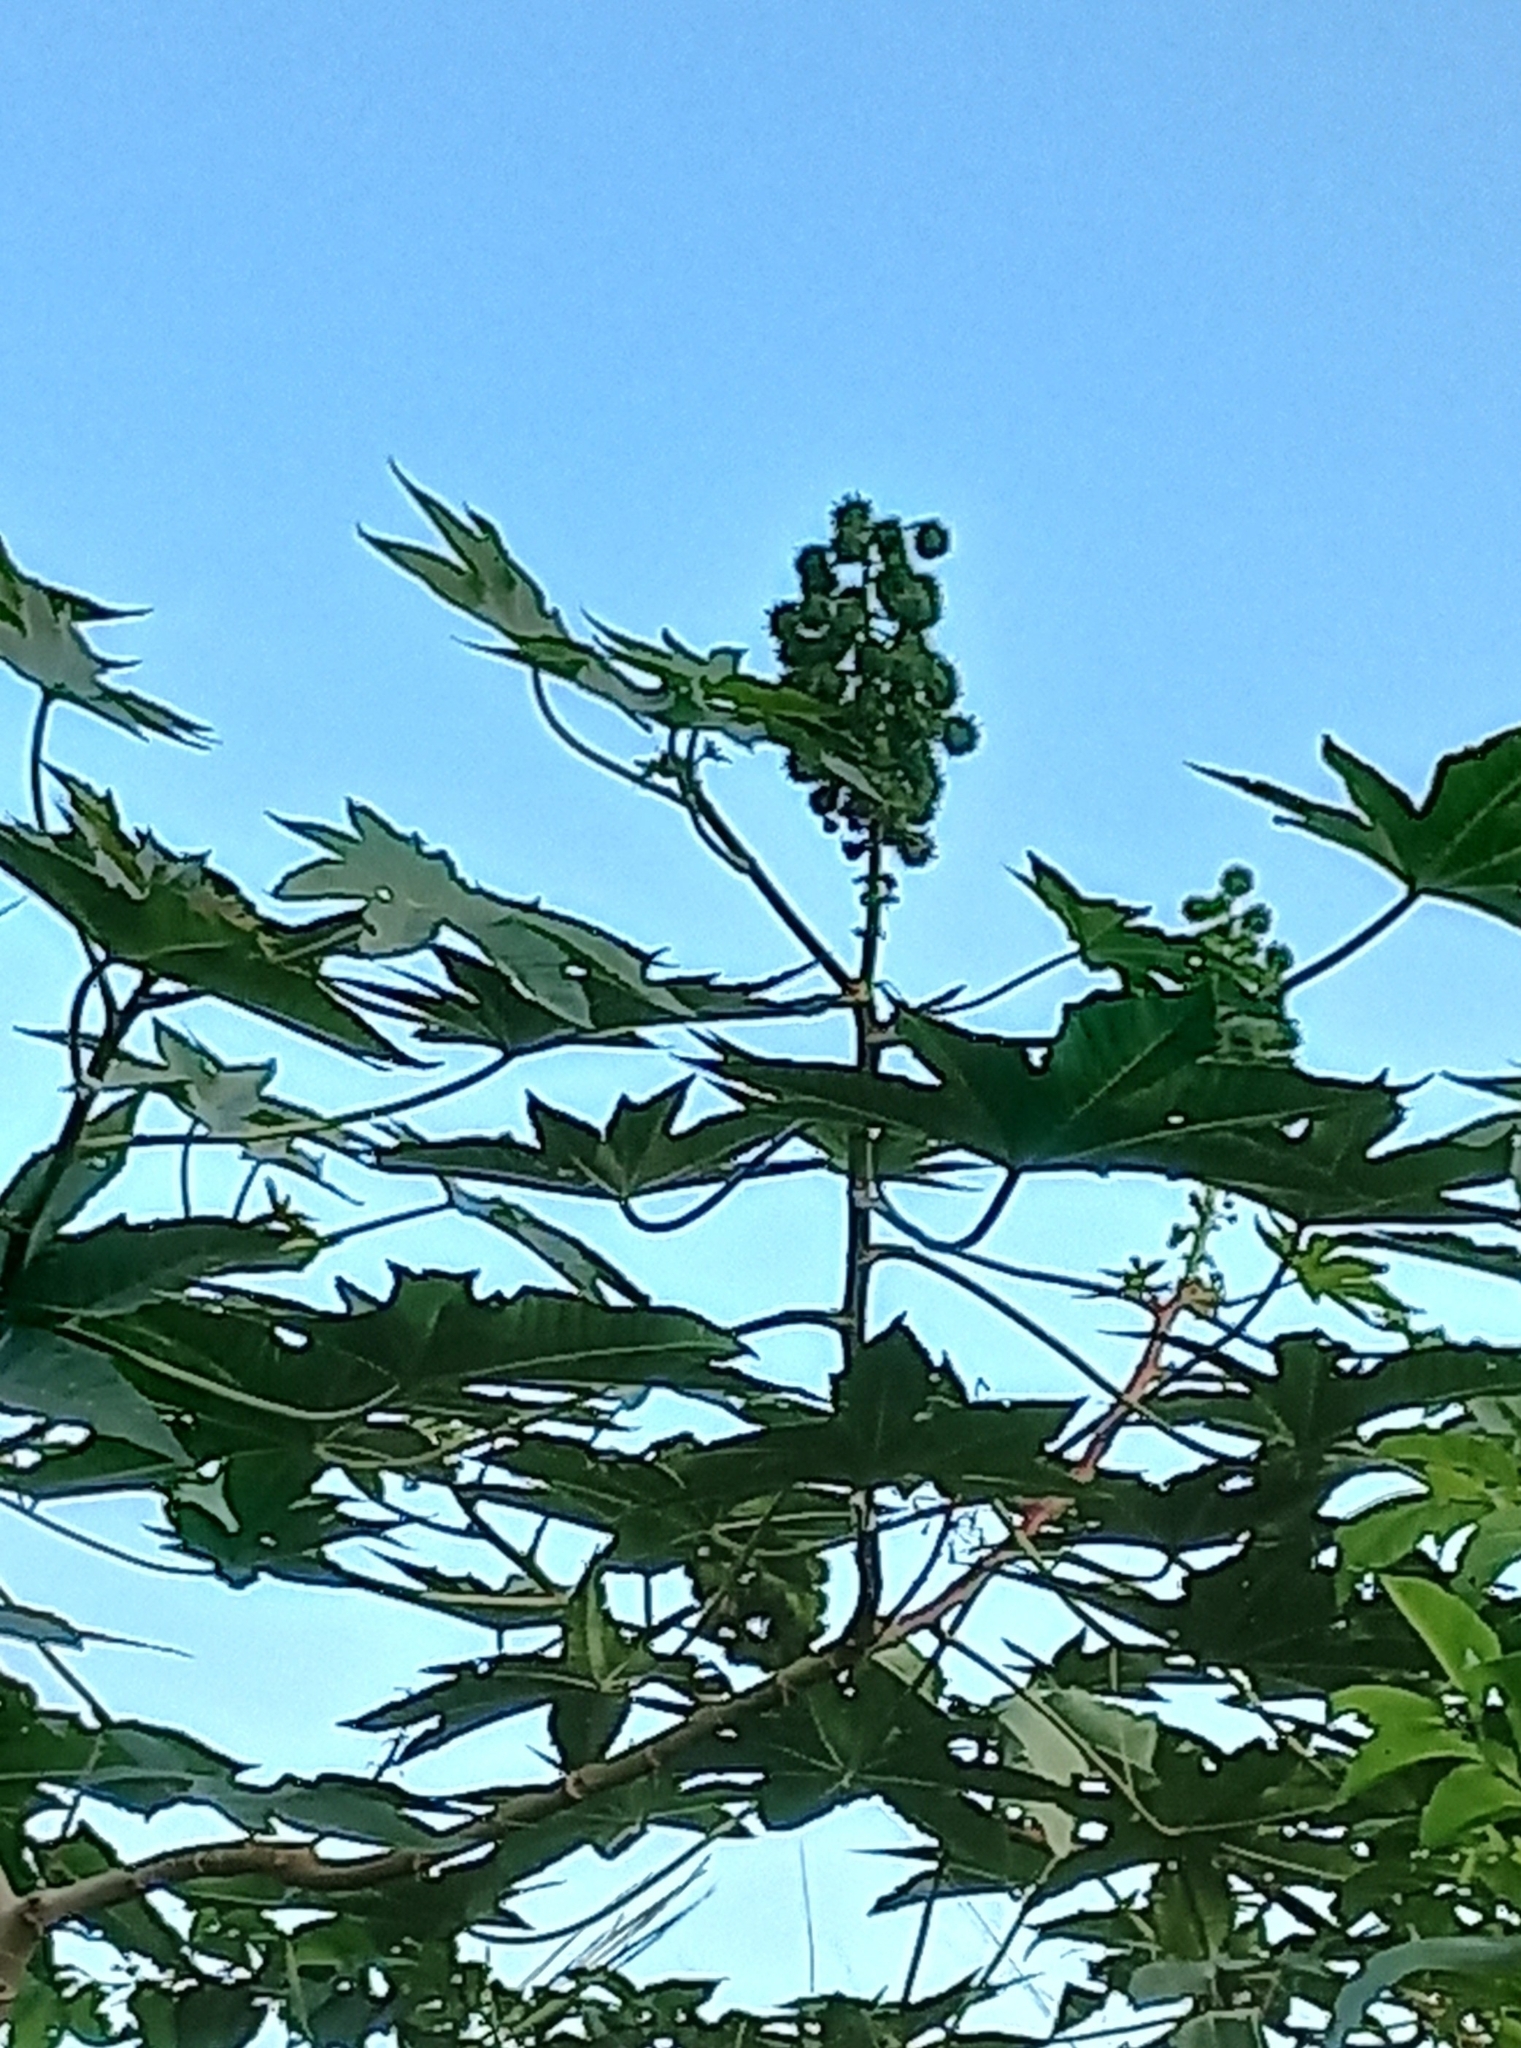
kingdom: Plantae
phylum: Tracheophyta
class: Magnoliopsida
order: Malpighiales
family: Euphorbiaceae
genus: Ricinus
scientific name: Ricinus communis
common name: Castor-oil-plant
